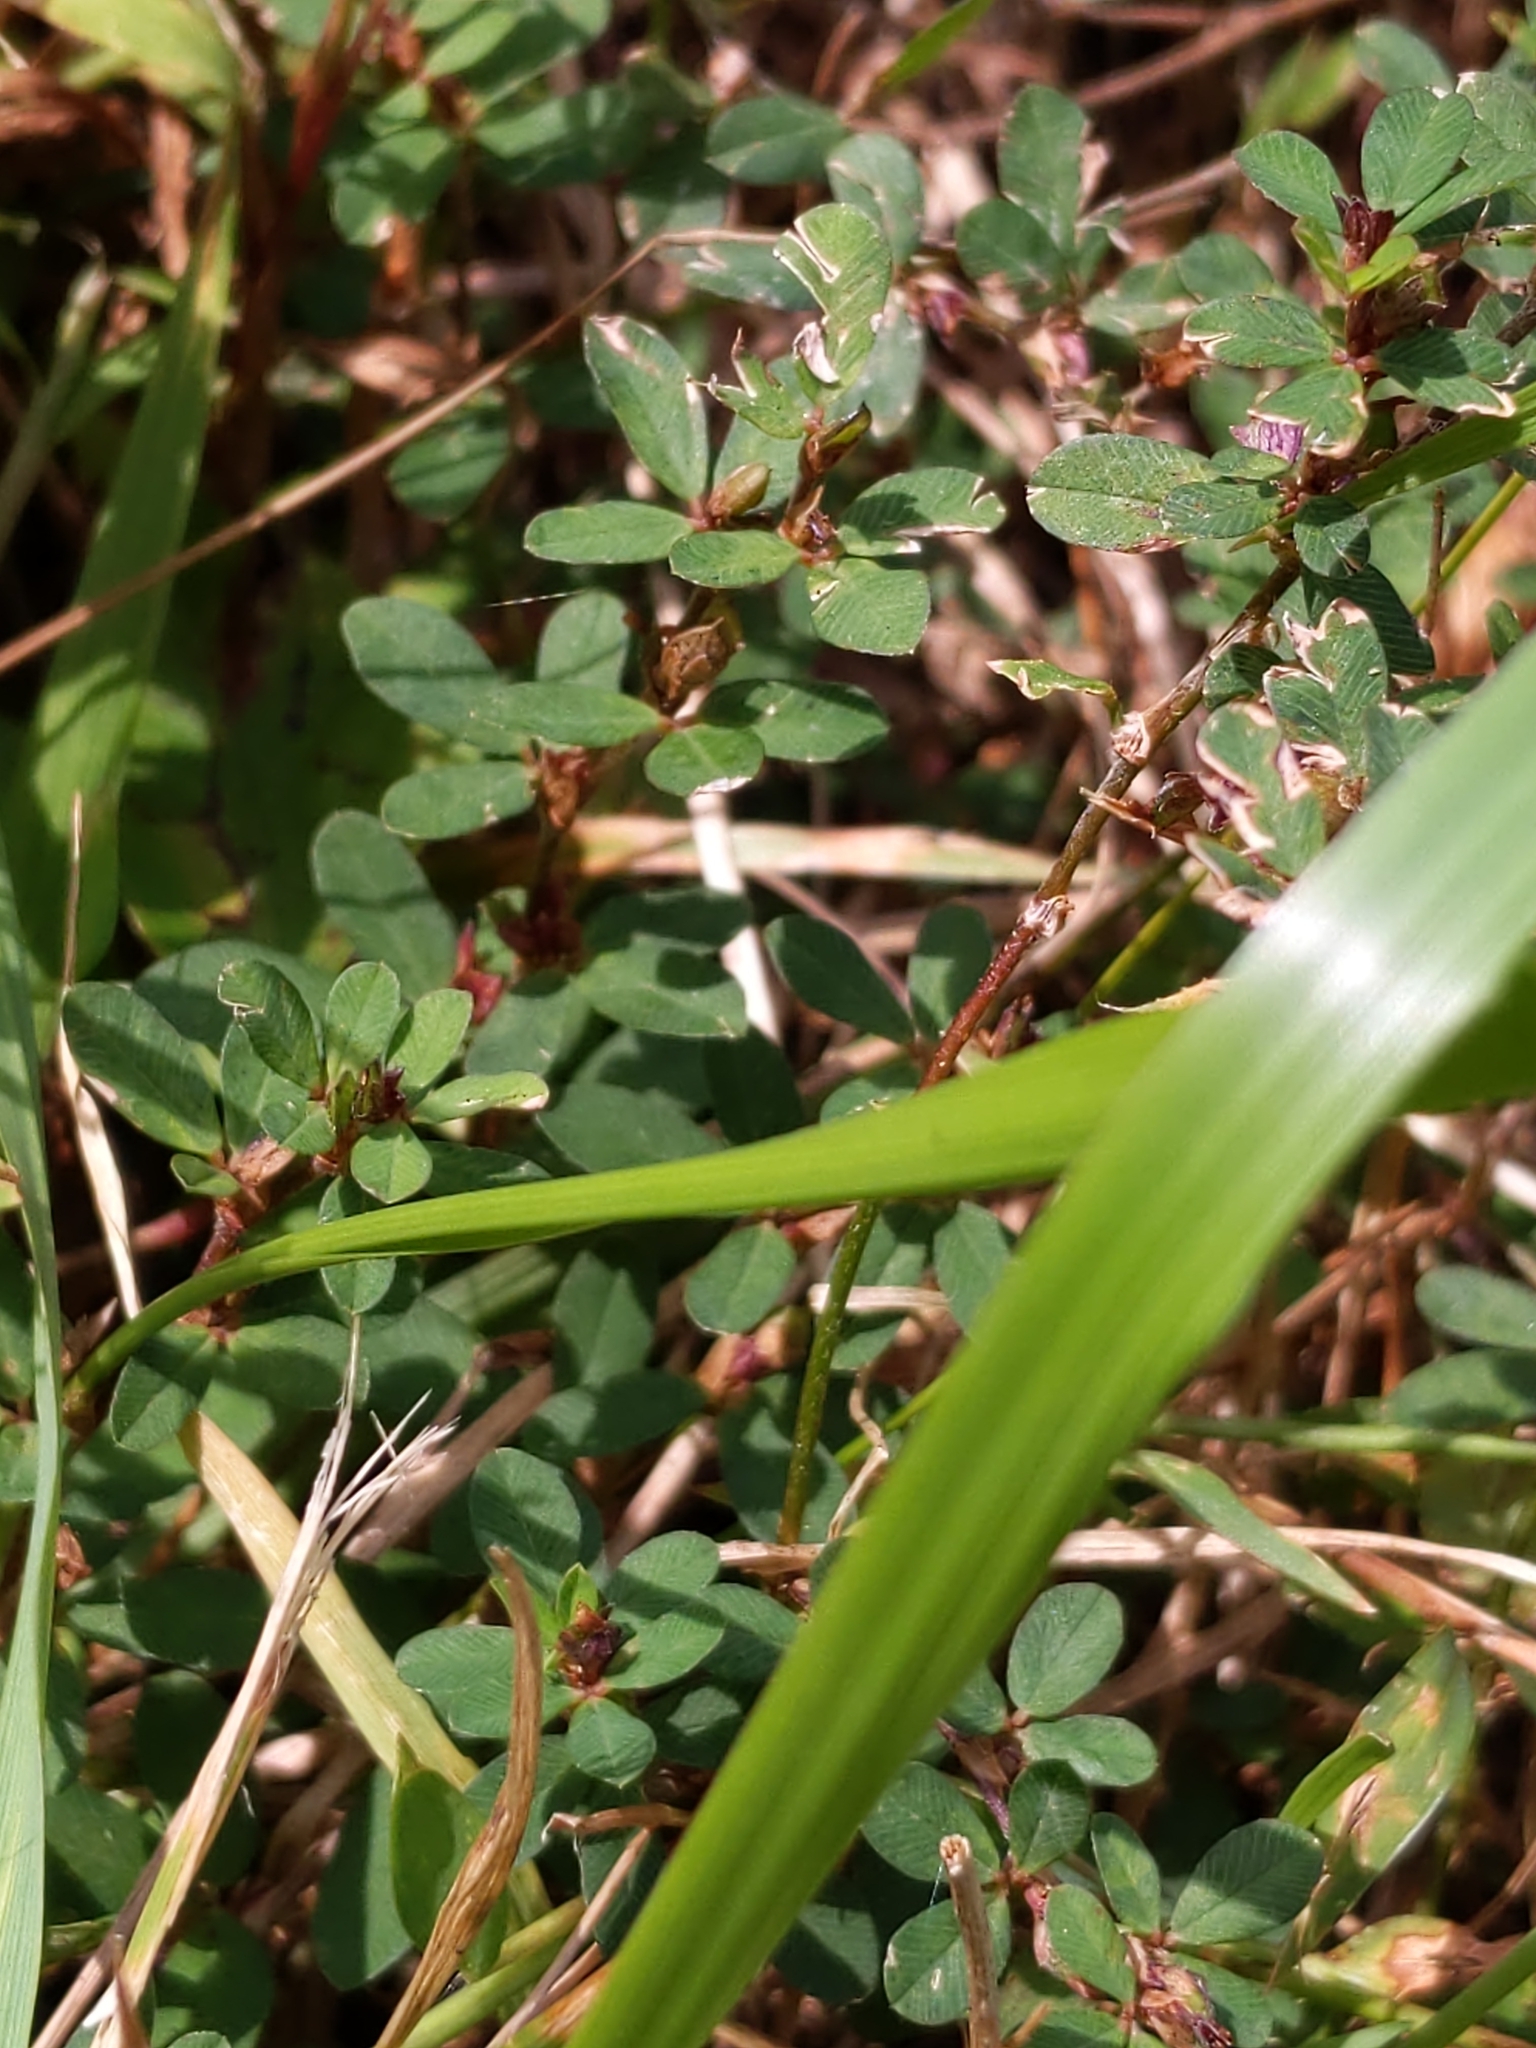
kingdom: Plantae
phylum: Tracheophyta
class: Magnoliopsida
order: Fabales
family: Fabaceae
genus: Kummerowia
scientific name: Kummerowia striata
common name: Japanese clover
